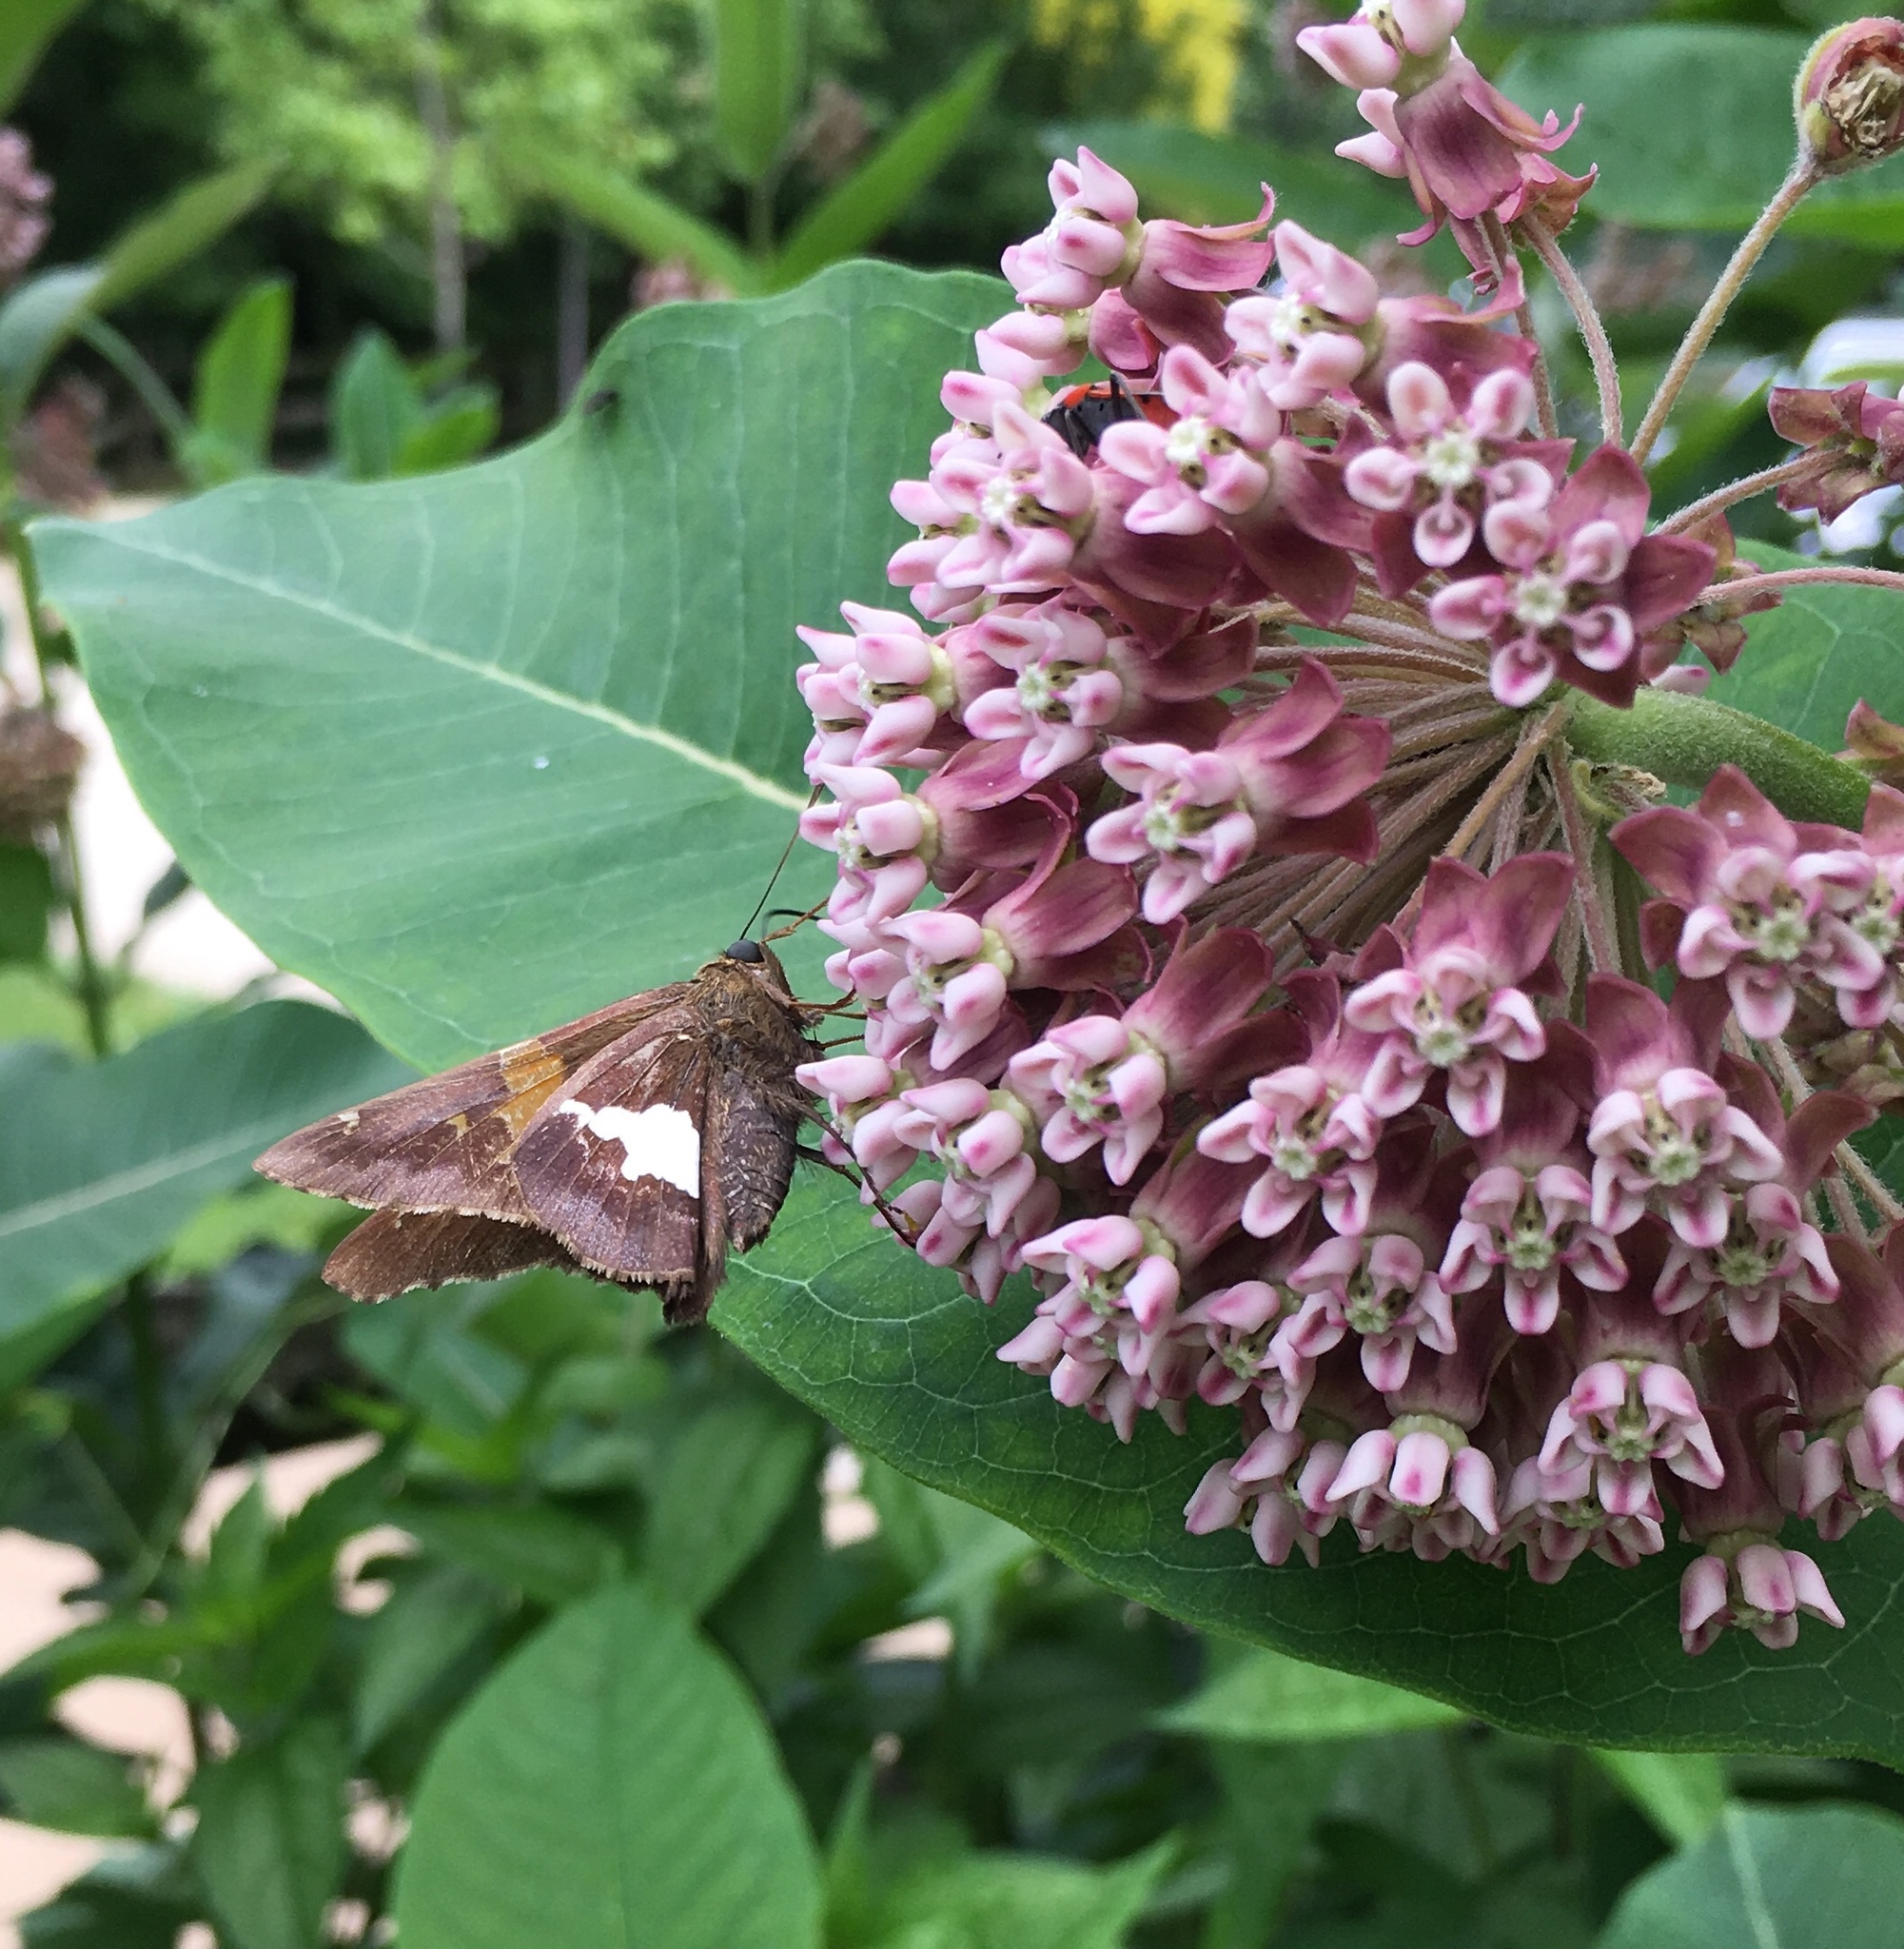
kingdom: Animalia
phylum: Arthropoda
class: Insecta
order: Lepidoptera
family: Hesperiidae
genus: Epargyreus
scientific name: Epargyreus clarus
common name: Silver-spotted skipper
